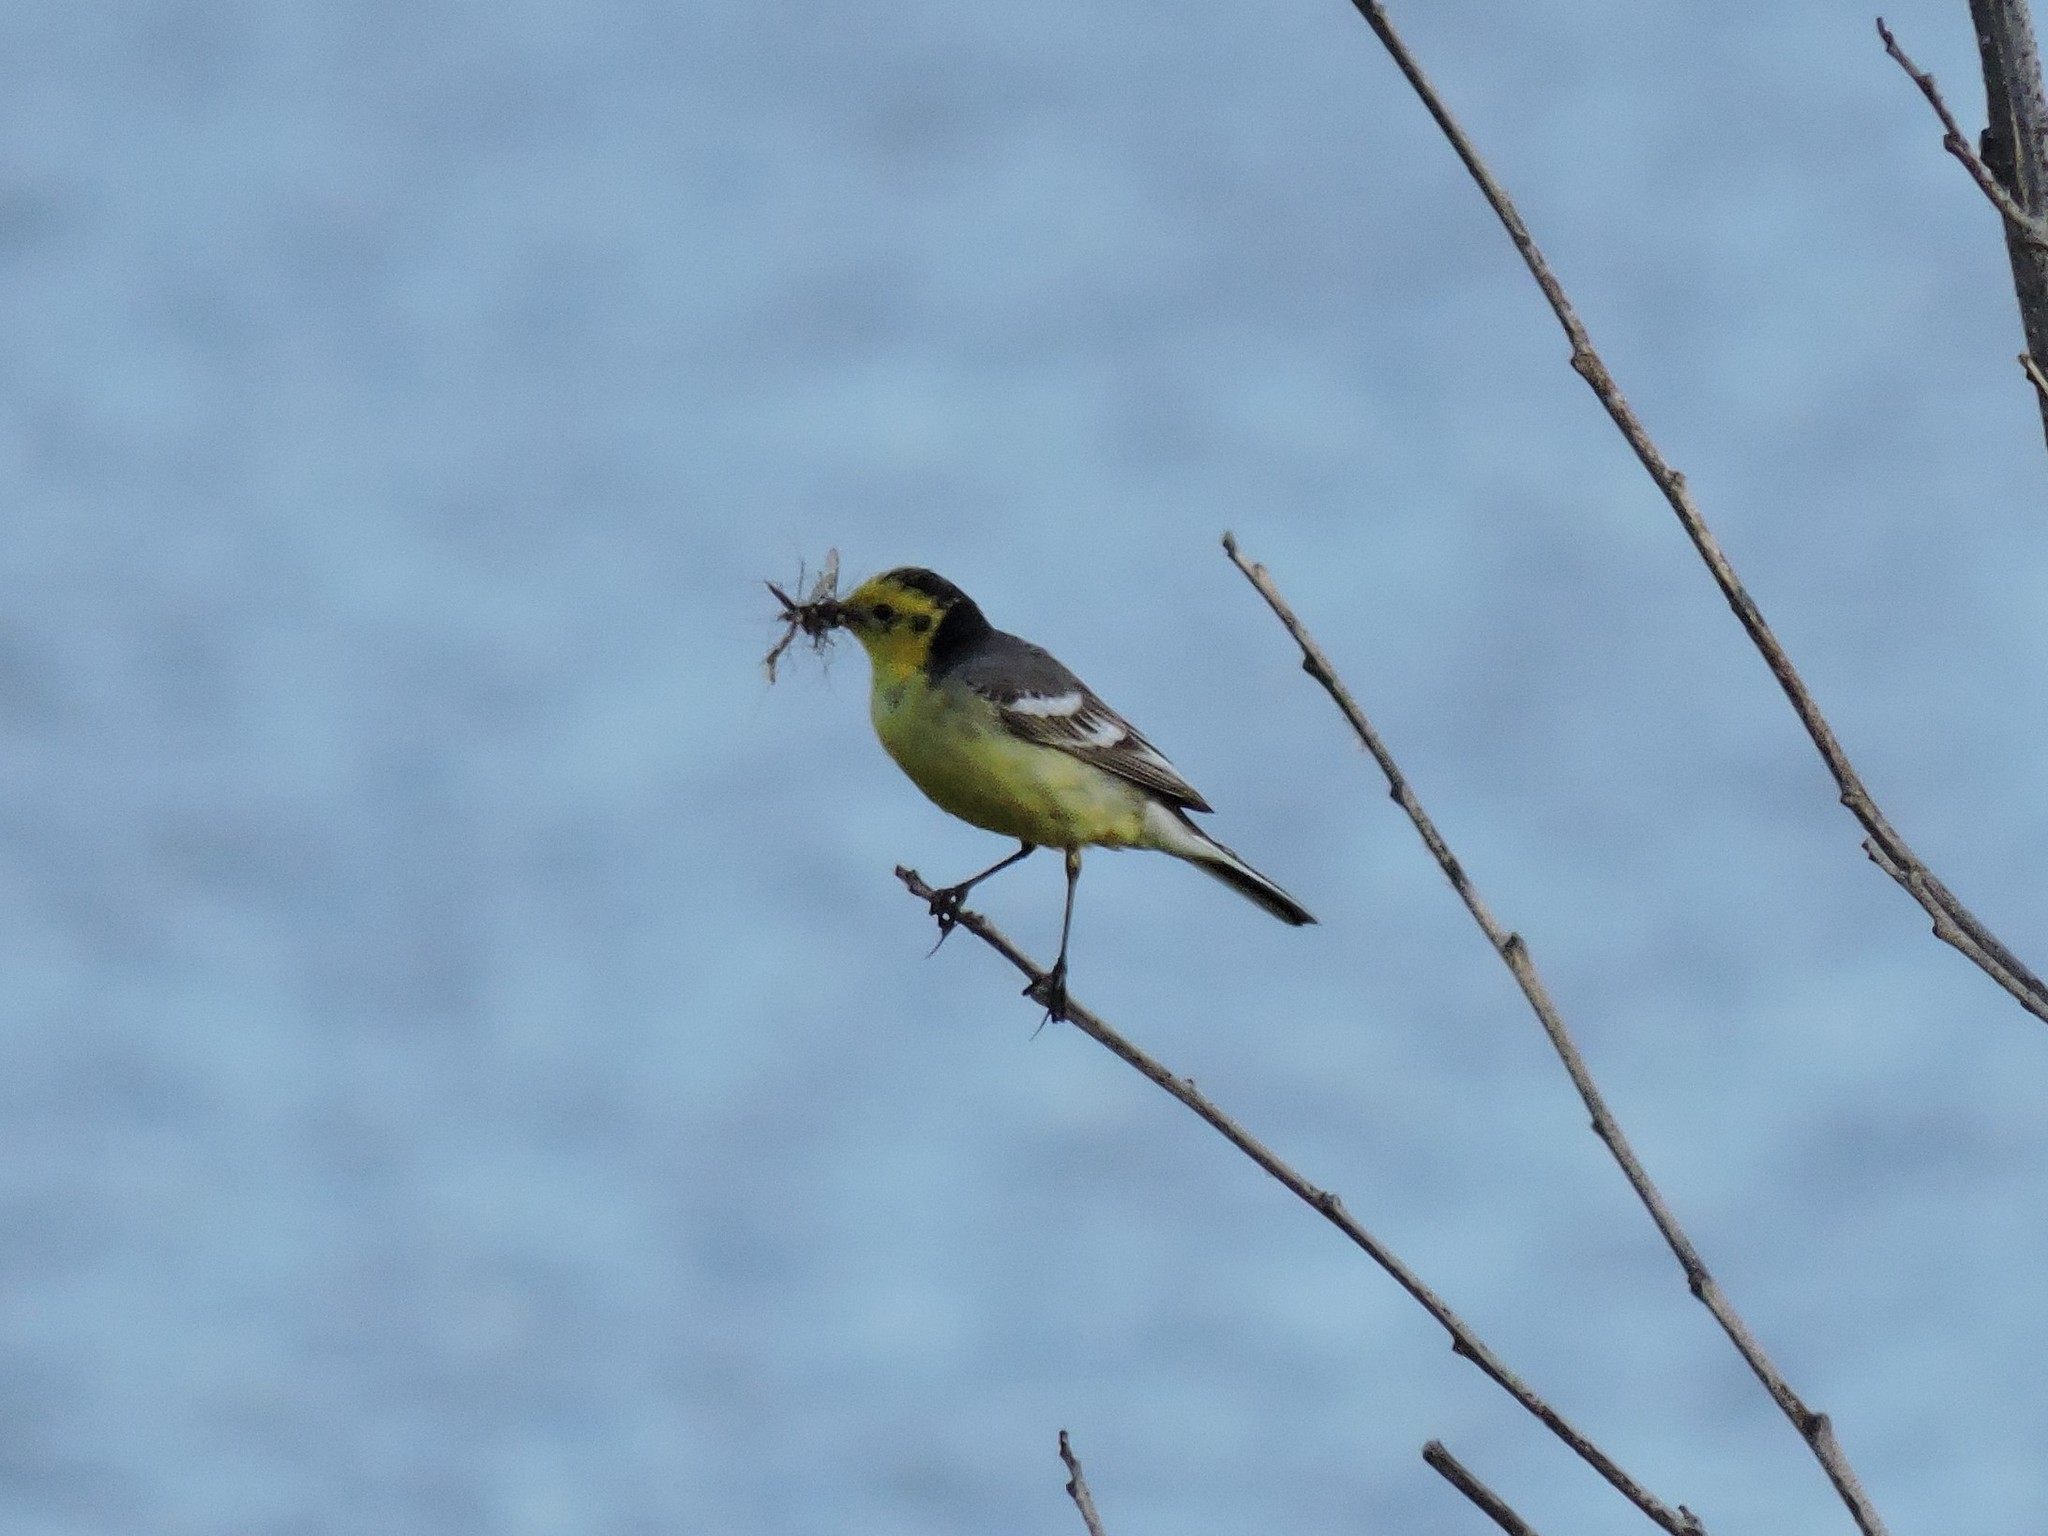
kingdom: Animalia
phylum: Chordata
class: Aves
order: Passeriformes
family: Motacillidae
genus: Motacilla
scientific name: Motacilla citreola
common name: Citrine wagtail
